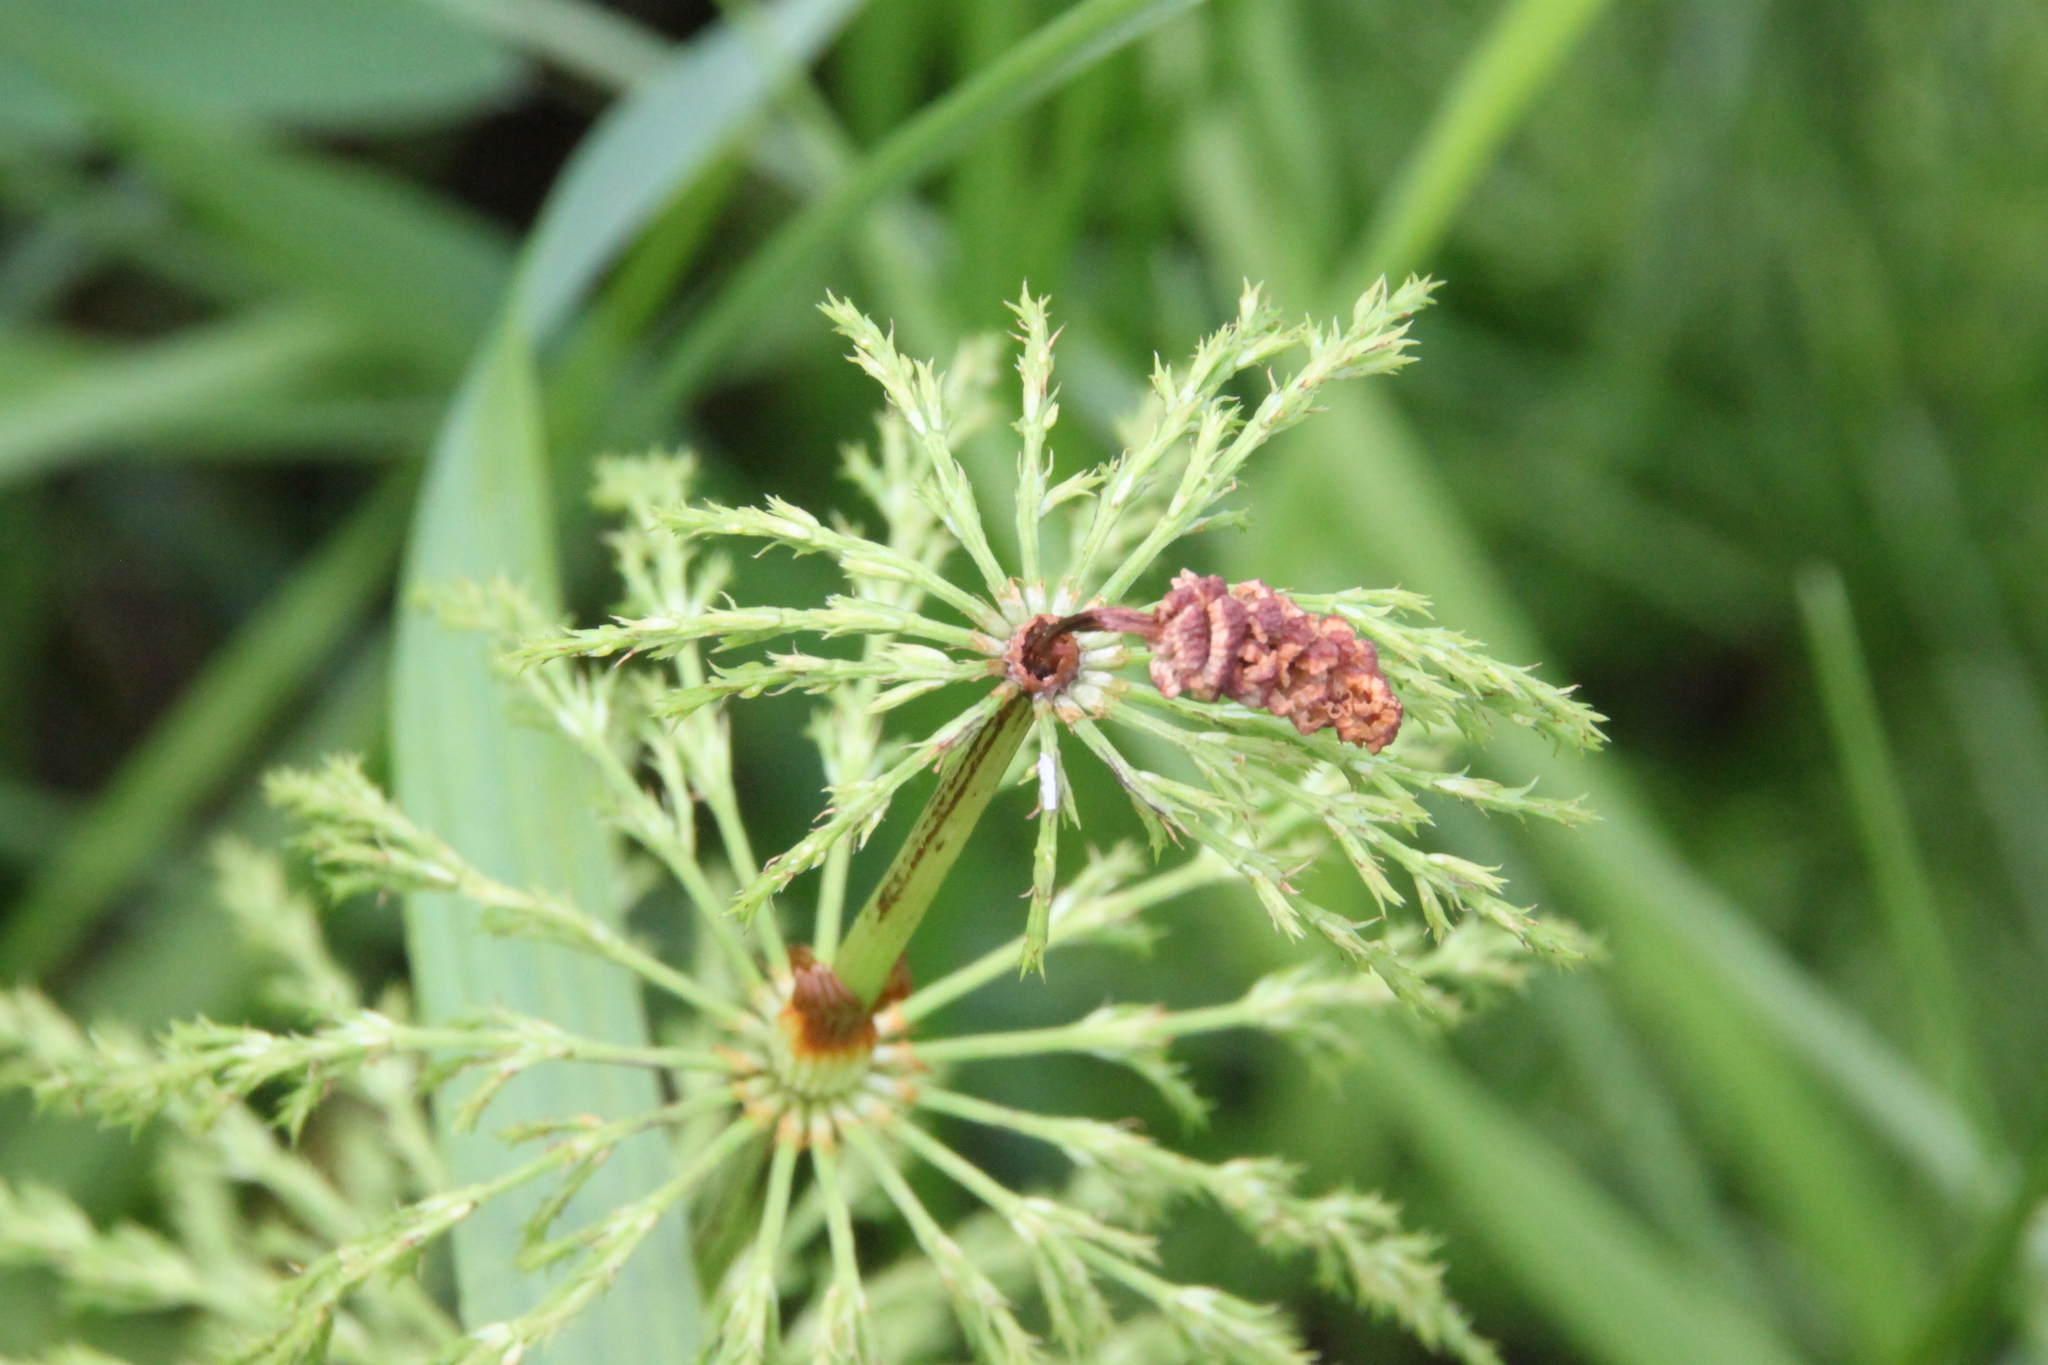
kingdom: Plantae
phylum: Tracheophyta
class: Polypodiopsida
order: Equisetales
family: Equisetaceae
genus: Equisetum
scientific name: Equisetum sylvaticum
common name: Wood horsetail
